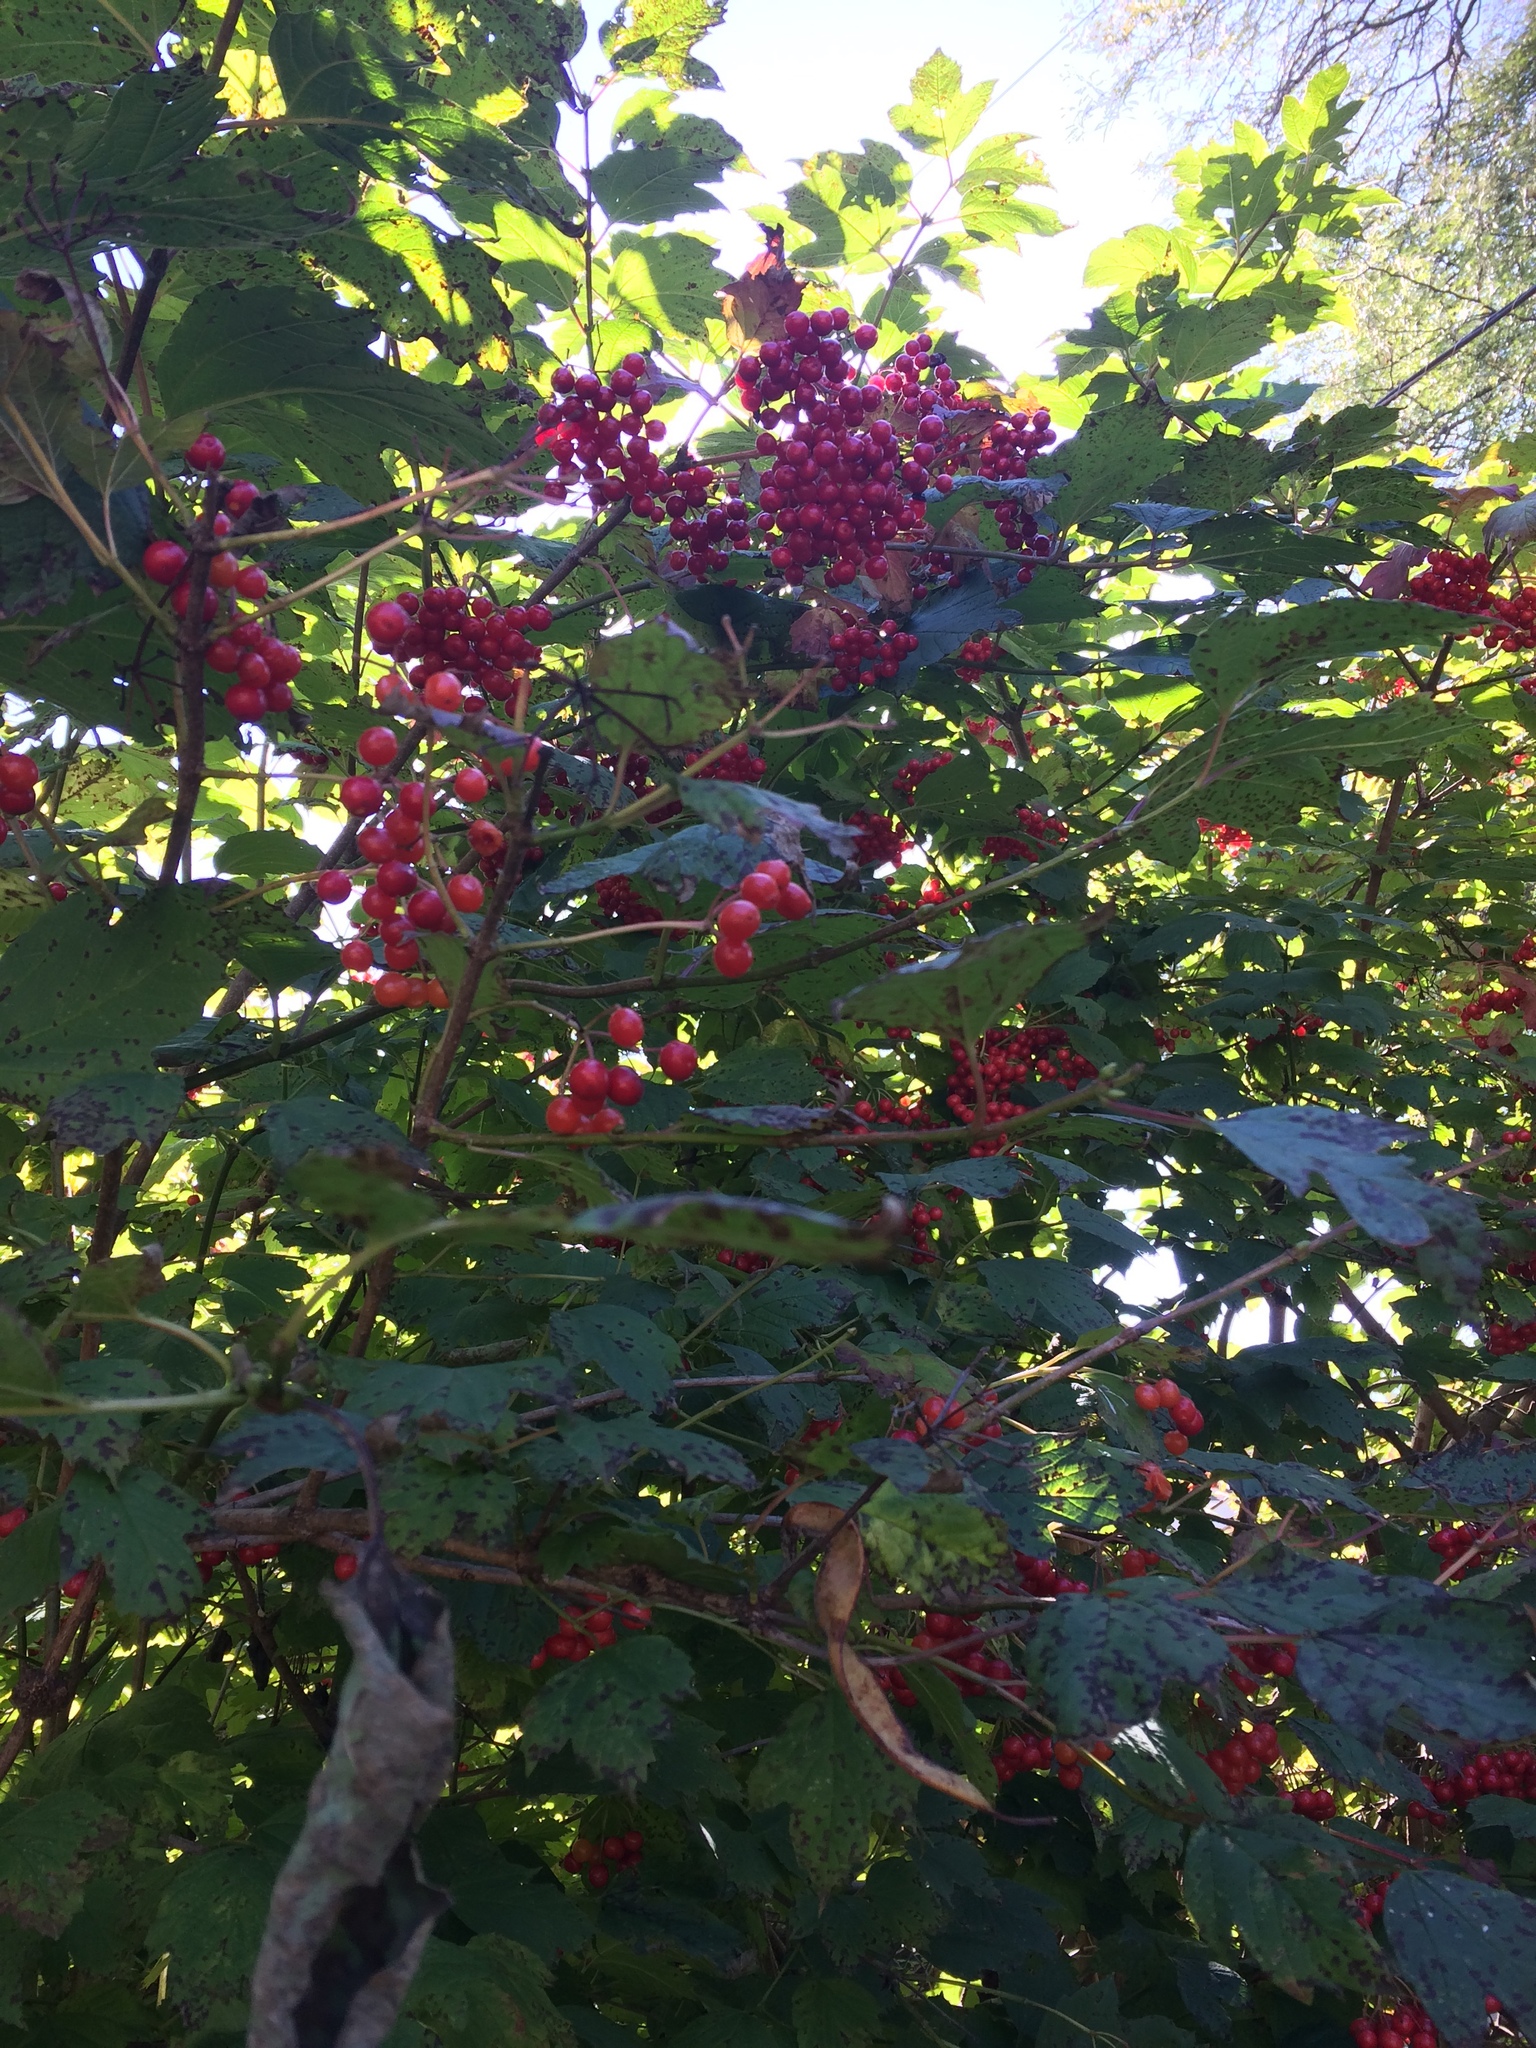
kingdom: Plantae
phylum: Tracheophyta
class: Magnoliopsida
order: Dipsacales
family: Viburnaceae
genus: Viburnum
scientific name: Viburnum opulus
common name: Guelder-rose
